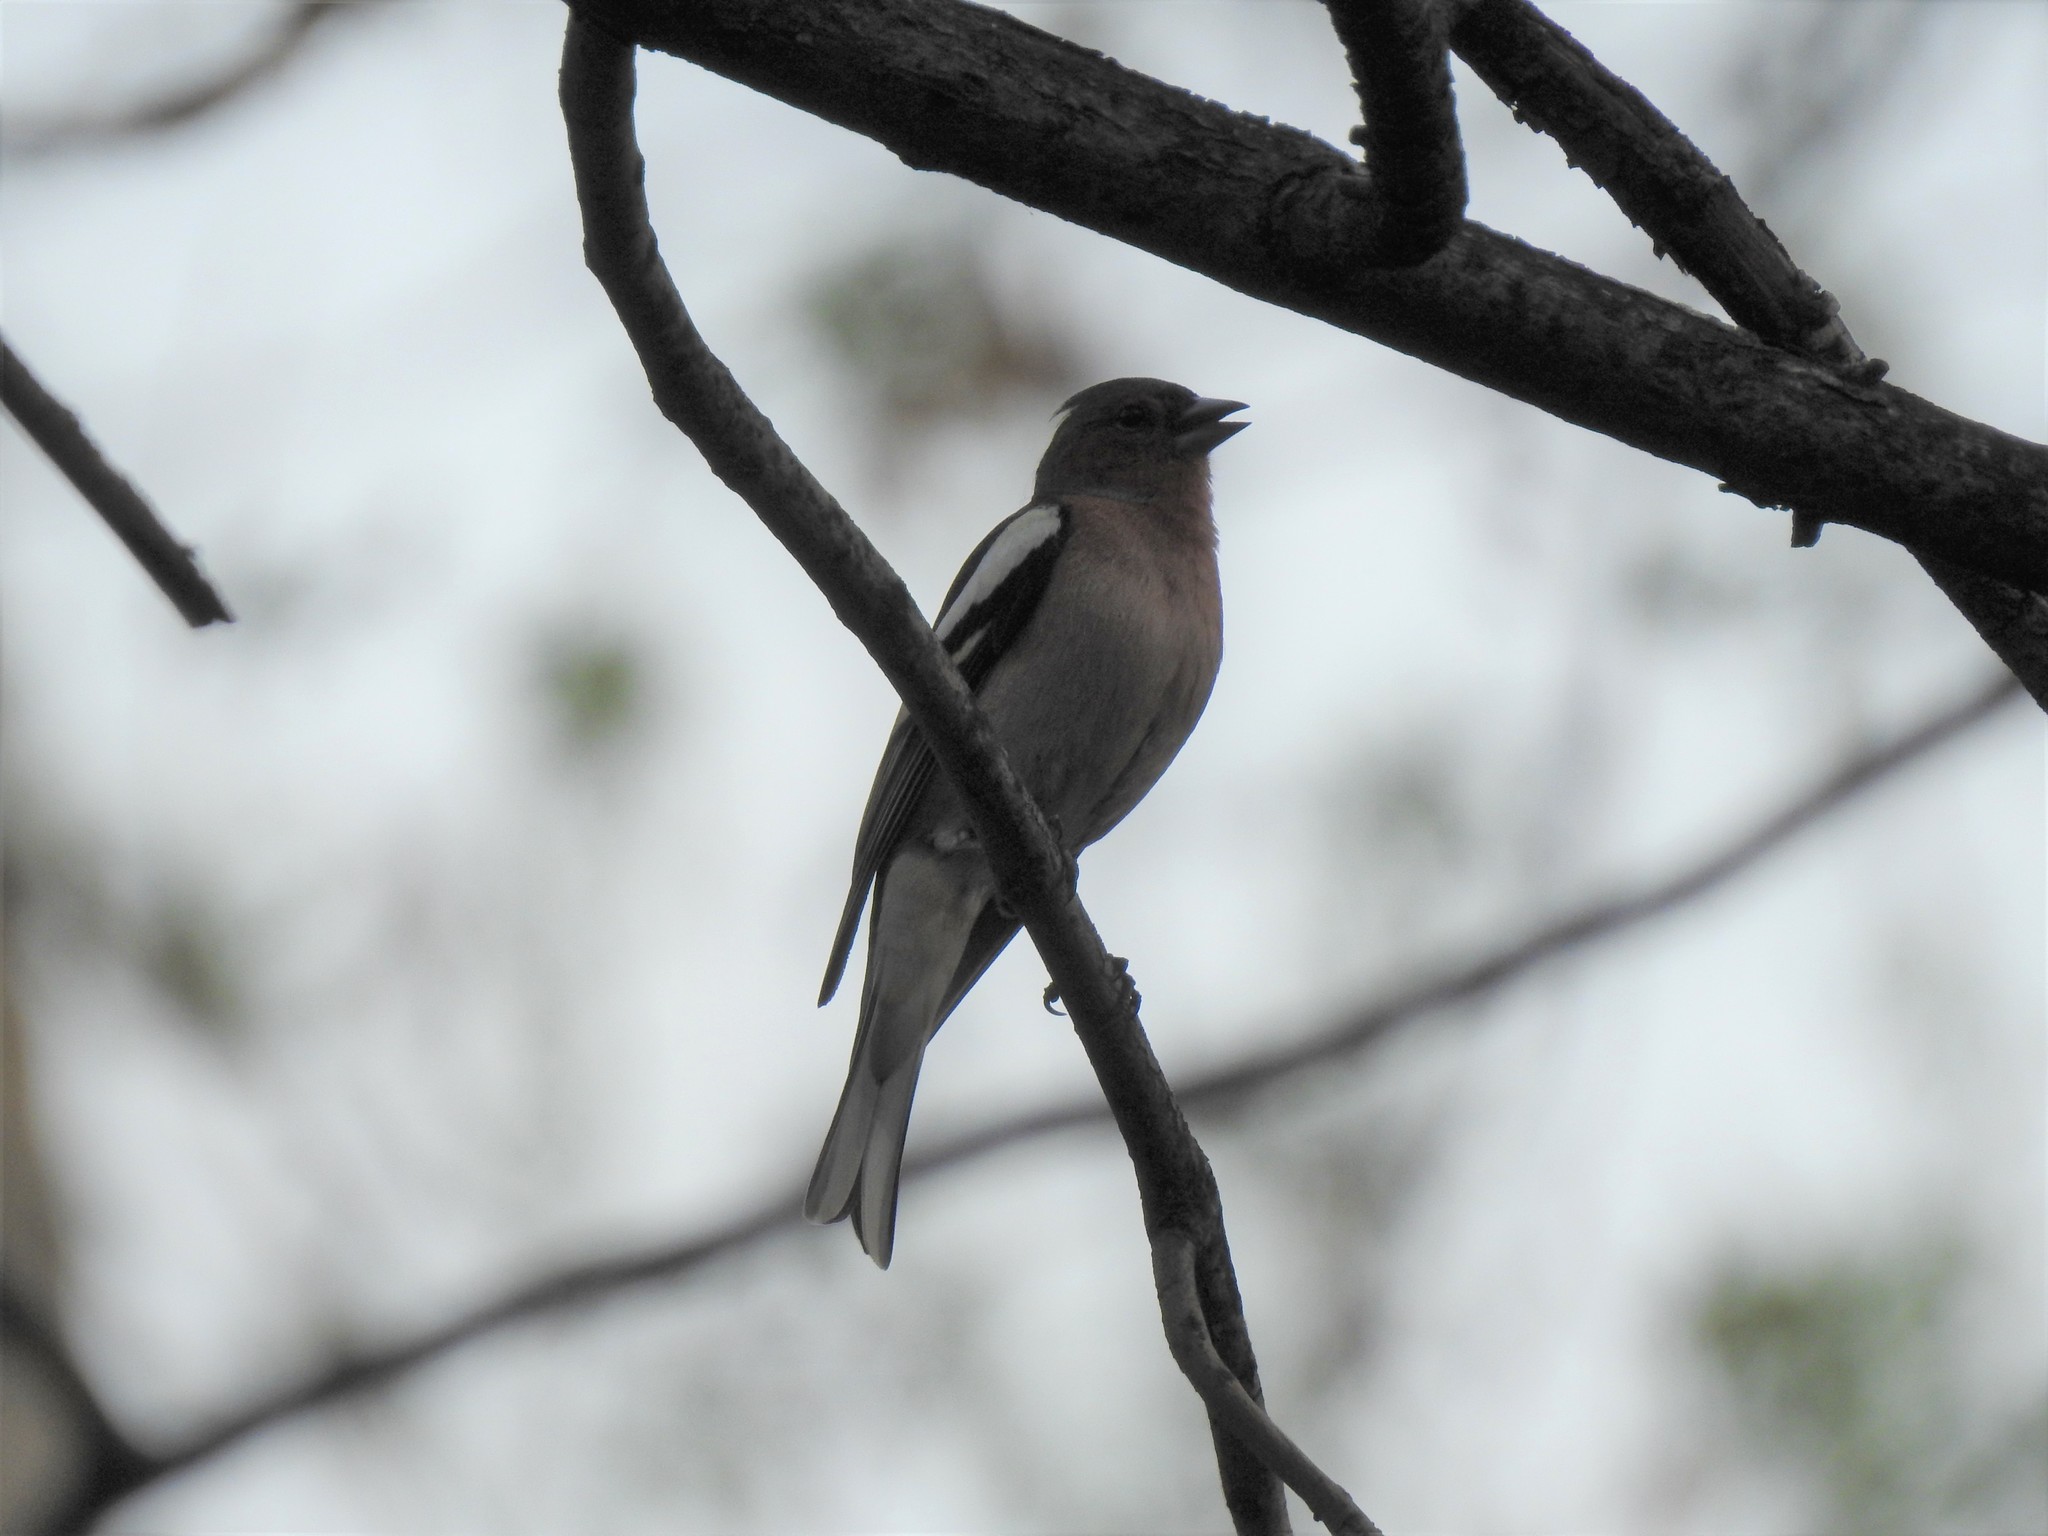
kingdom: Animalia
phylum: Chordata
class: Aves
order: Passeriformes
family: Fringillidae
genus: Fringilla
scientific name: Fringilla coelebs
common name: Common chaffinch
